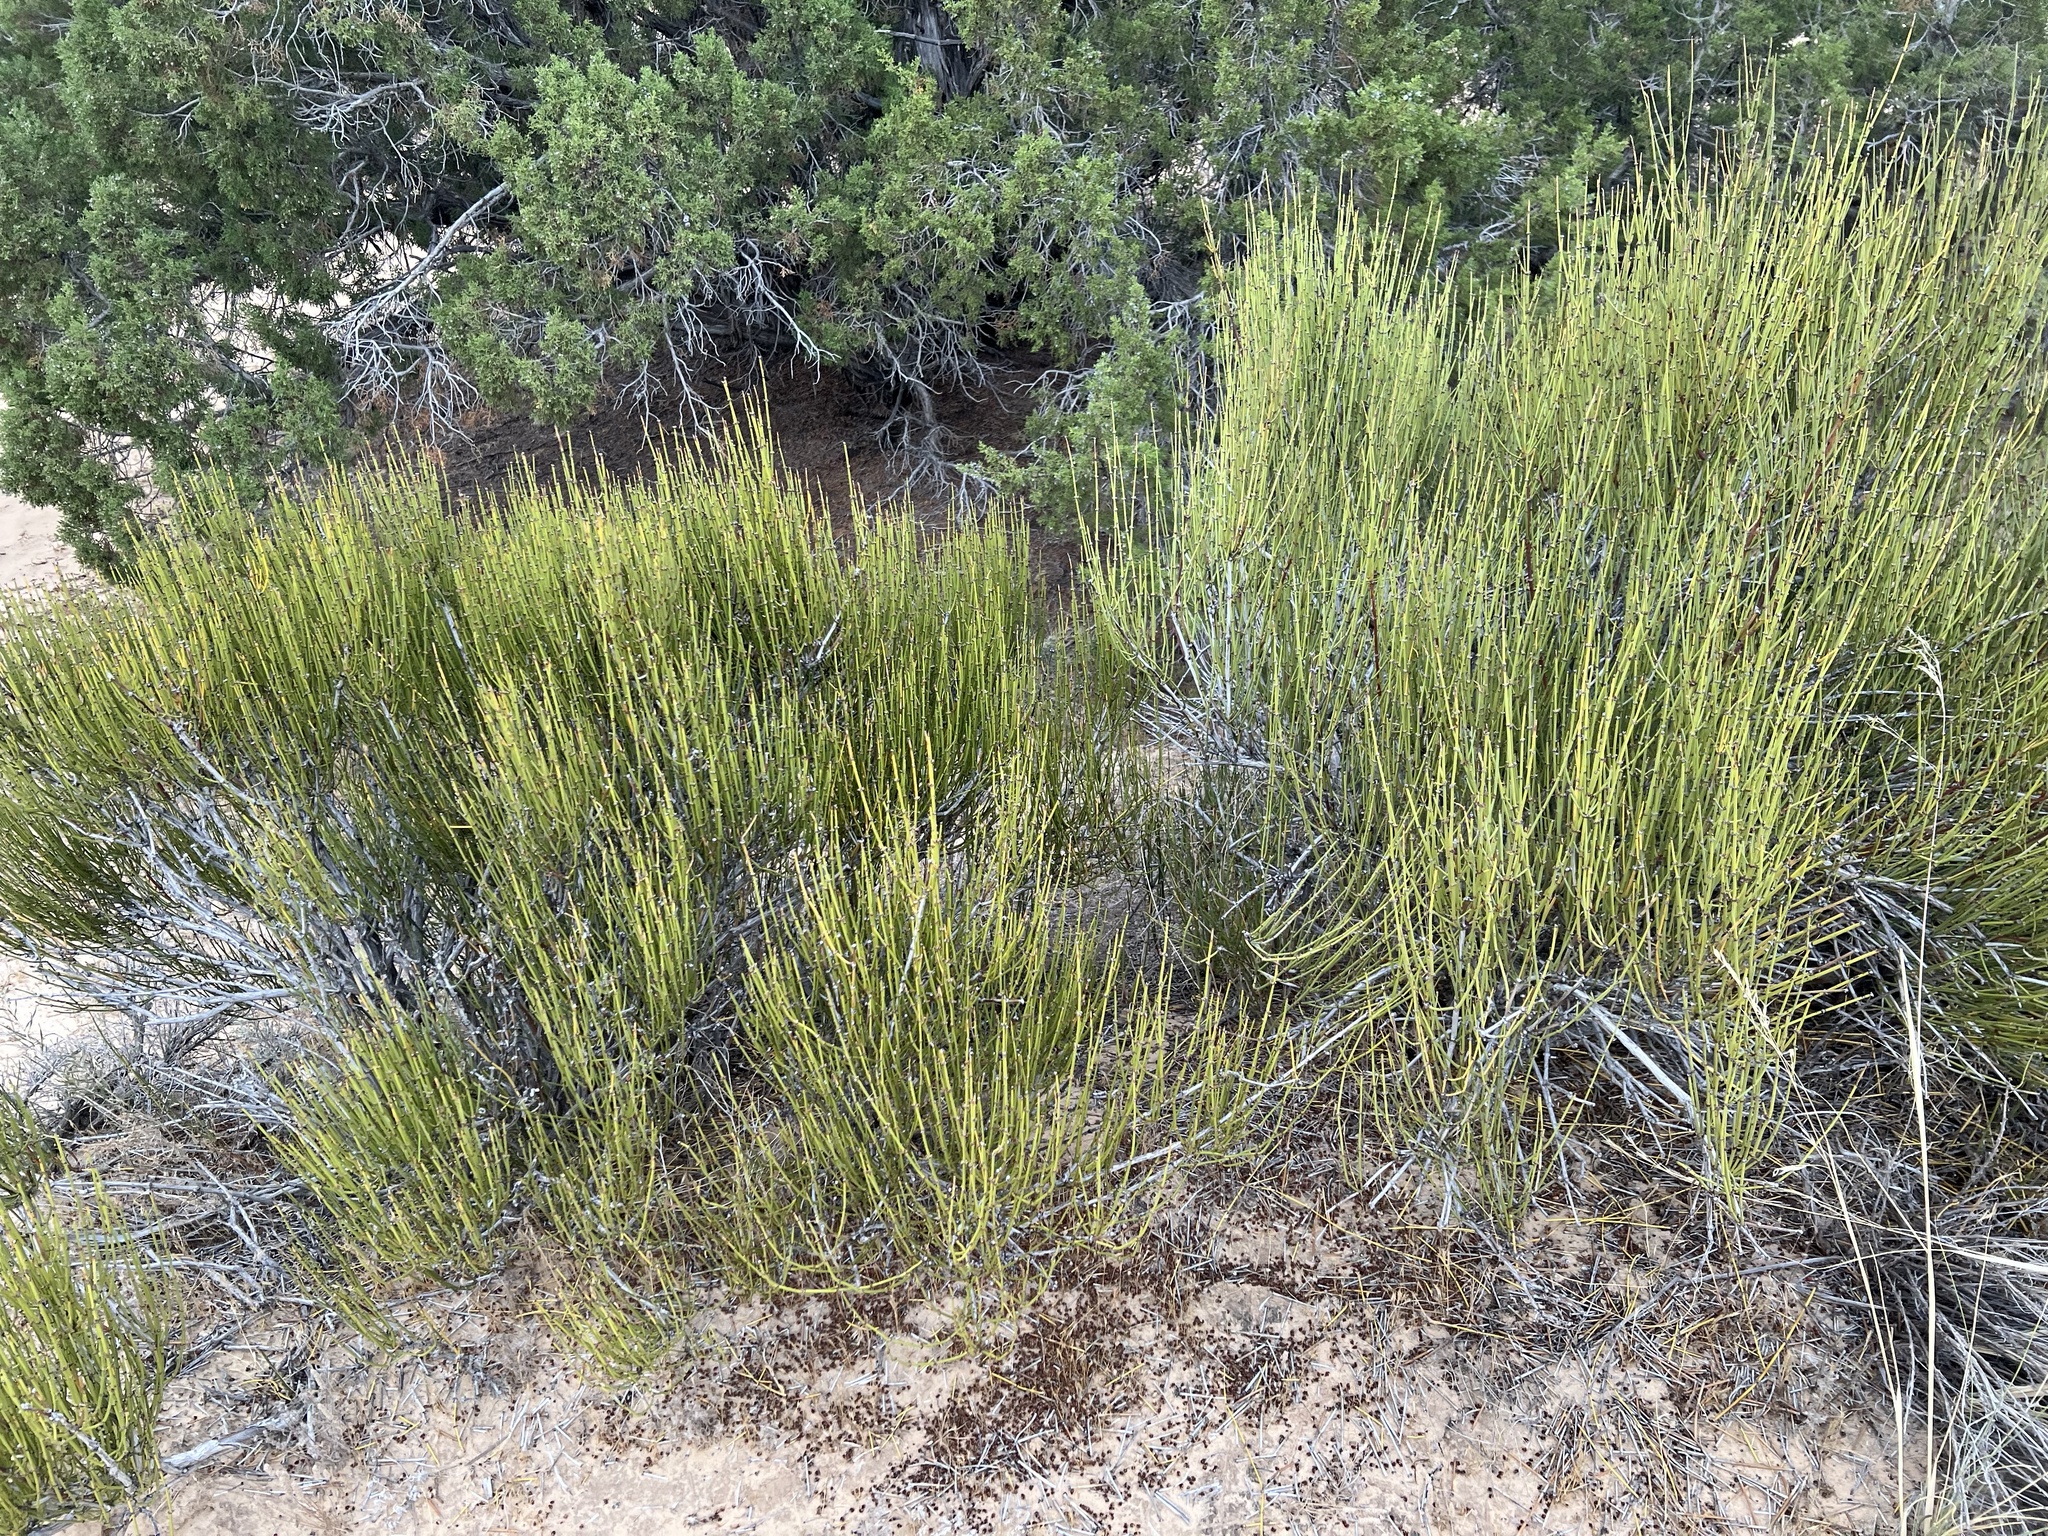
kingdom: Plantae
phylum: Tracheophyta
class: Gnetopsida
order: Ephedrales
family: Ephedraceae
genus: Ephedra
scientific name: Ephedra viridis
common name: Green ephedra
